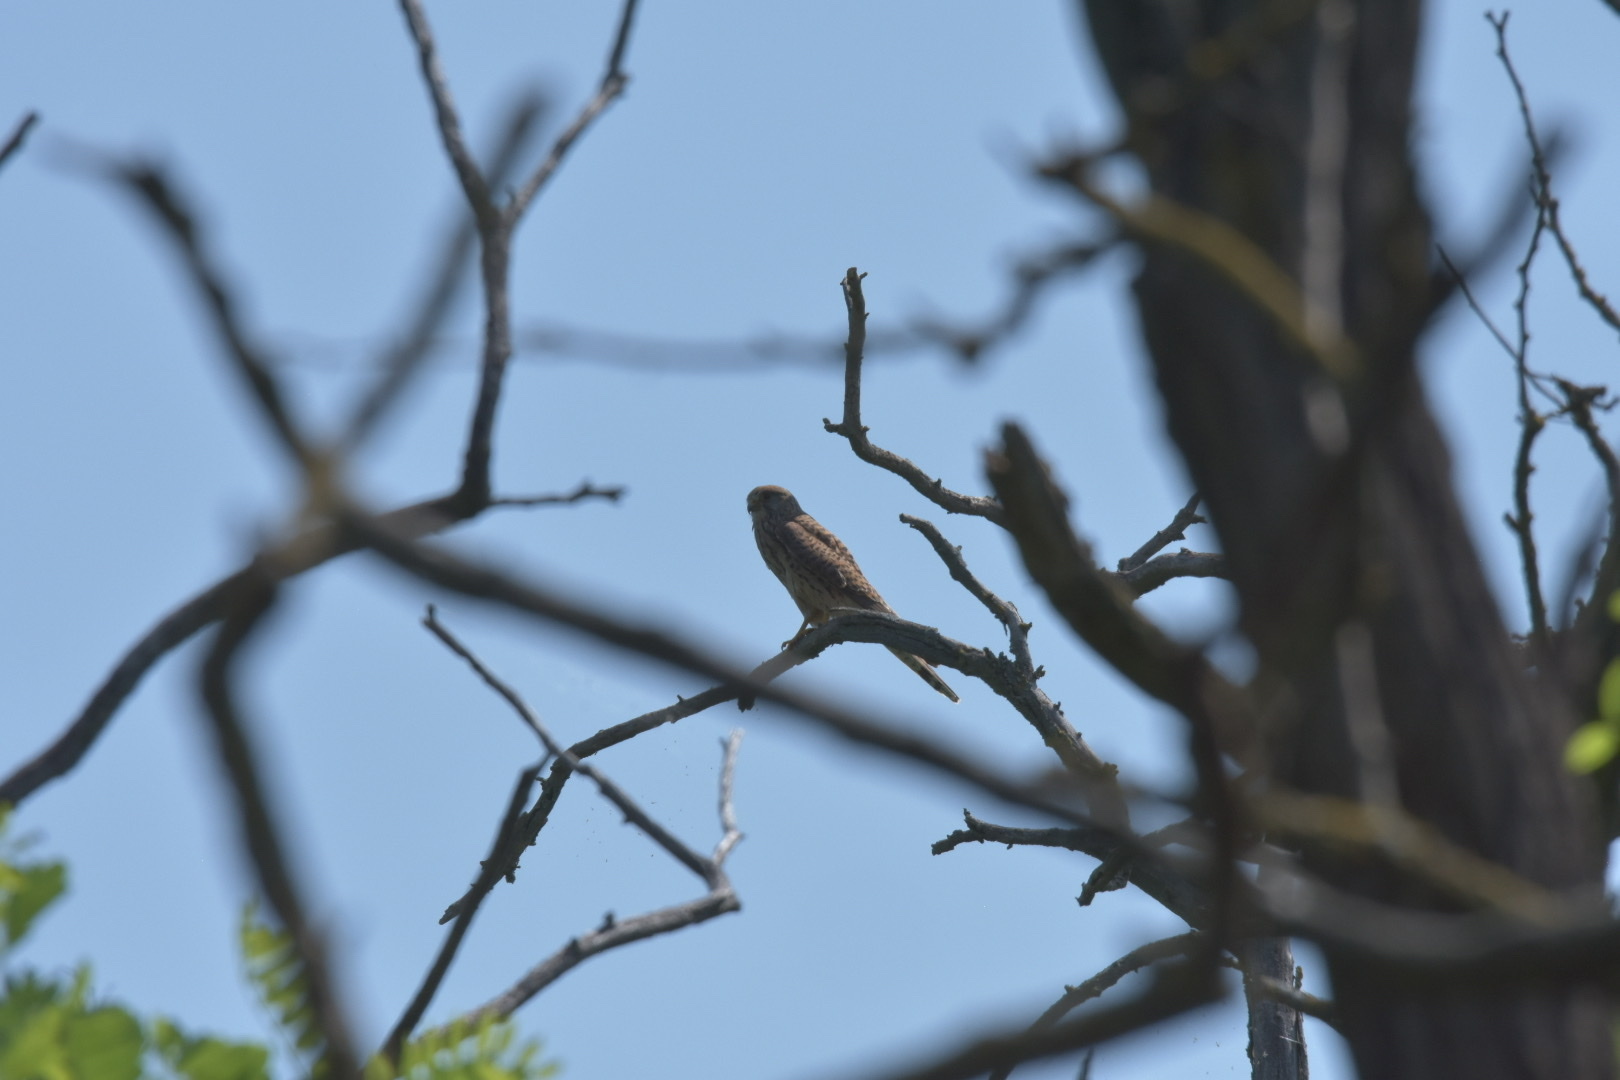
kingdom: Animalia
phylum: Chordata
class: Aves
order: Falconiformes
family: Falconidae
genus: Falco
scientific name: Falco tinnunculus
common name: Common kestrel
